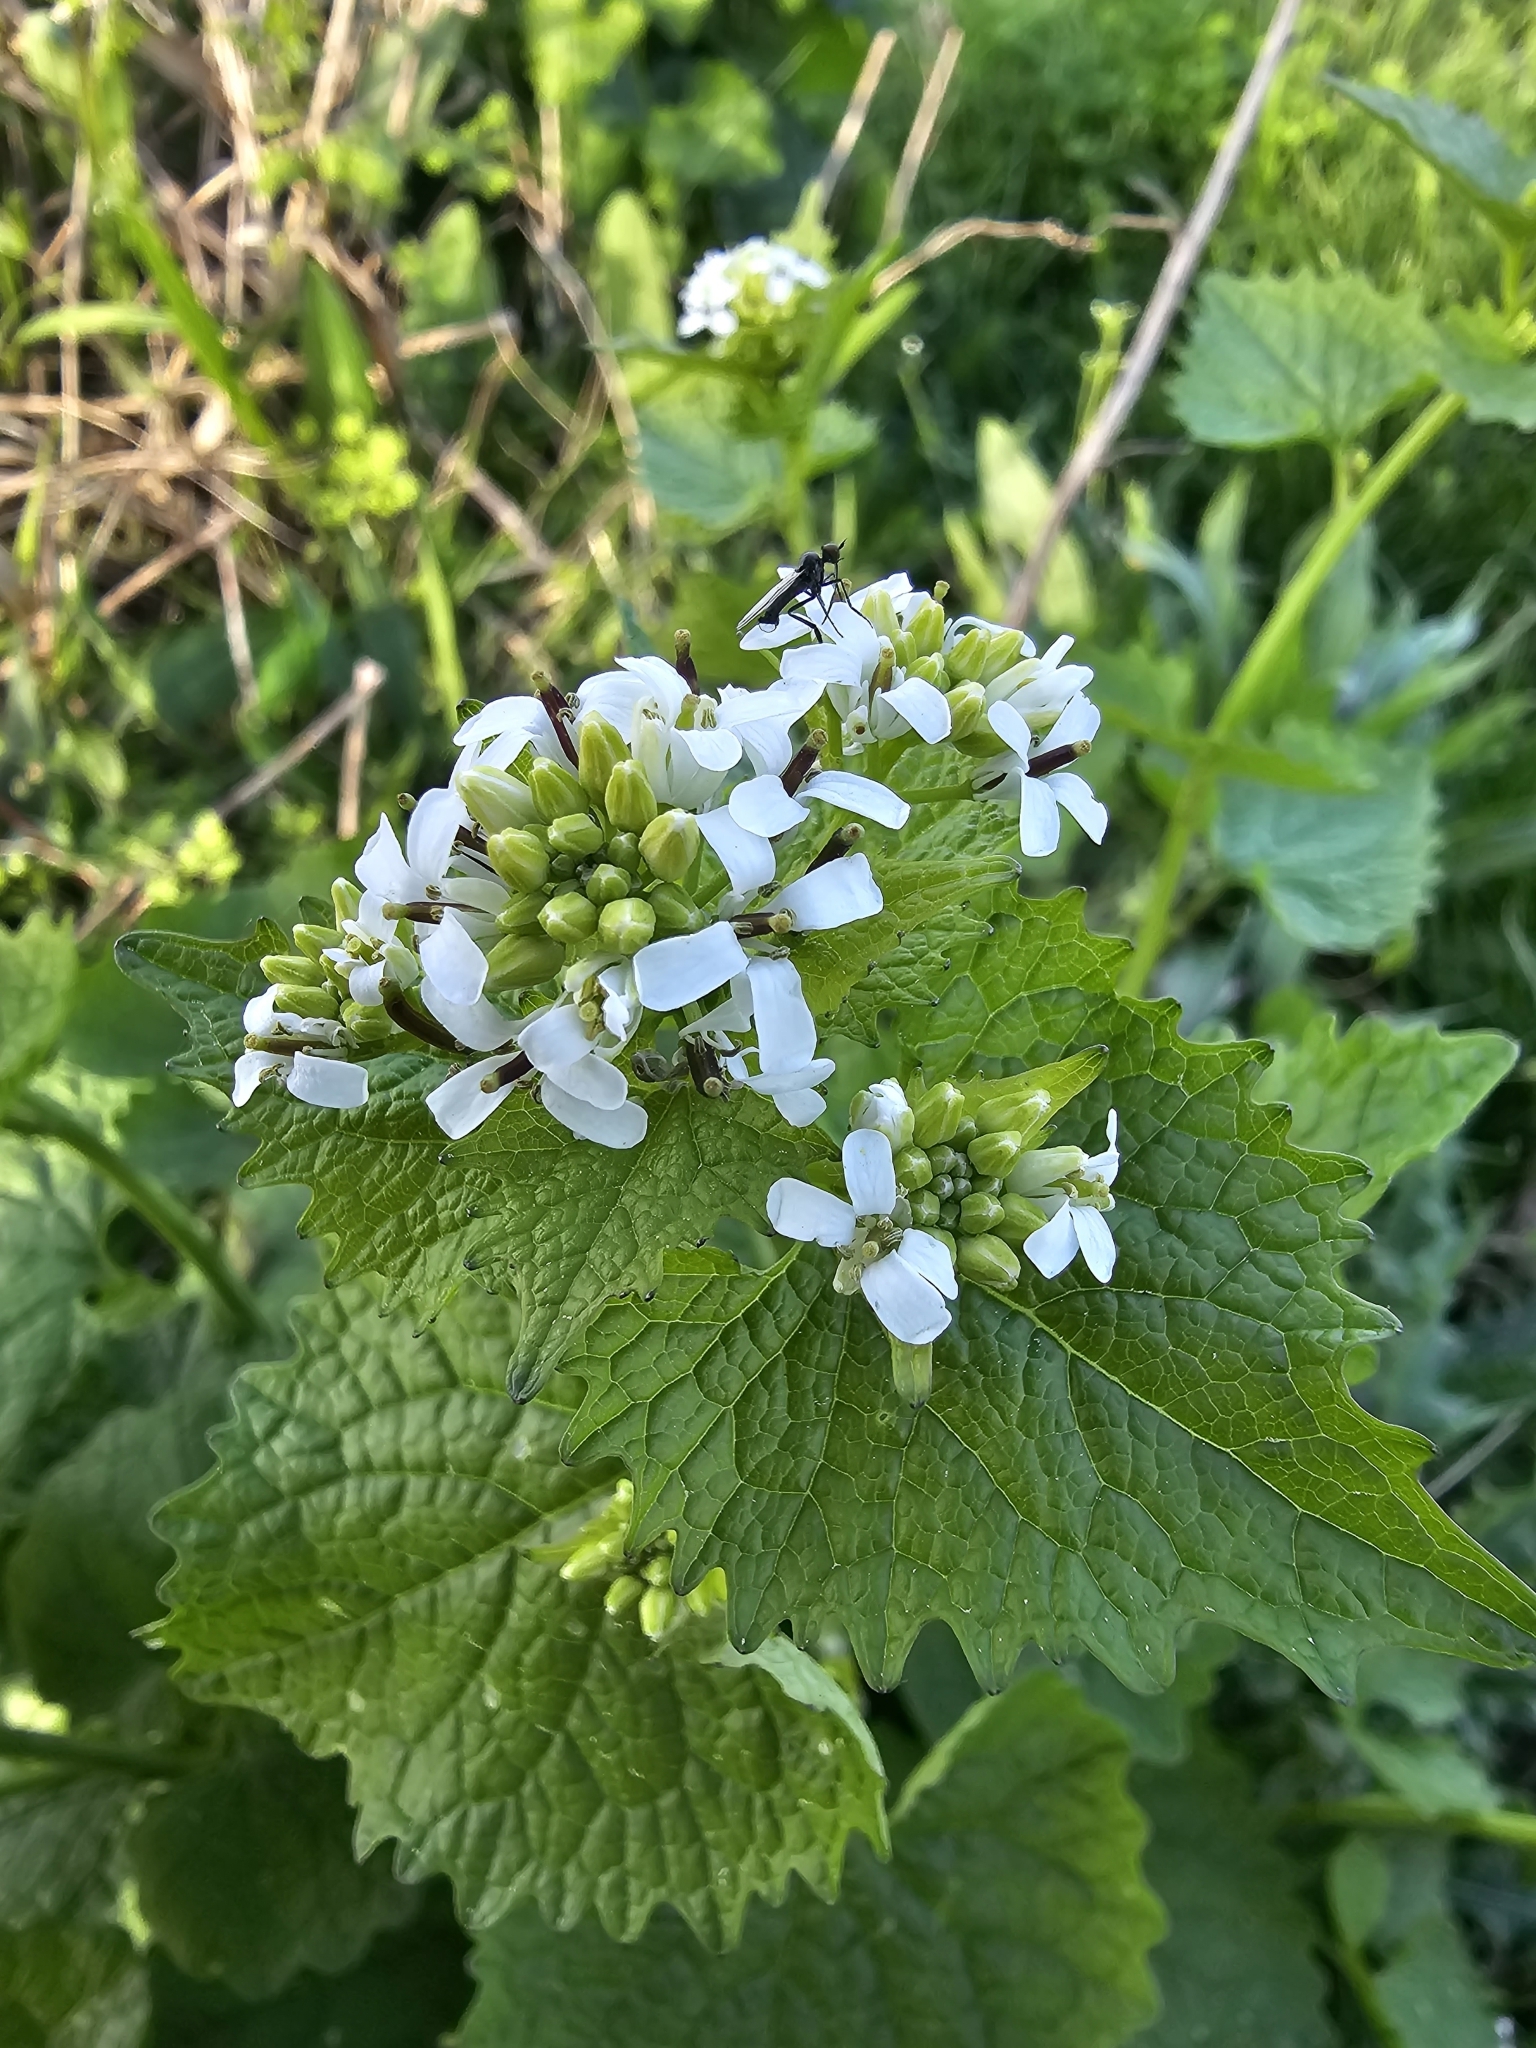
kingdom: Plantae
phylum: Tracheophyta
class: Magnoliopsida
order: Brassicales
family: Brassicaceae
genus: Alliaria
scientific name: Alliaria petiolata
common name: Garlic mustard
